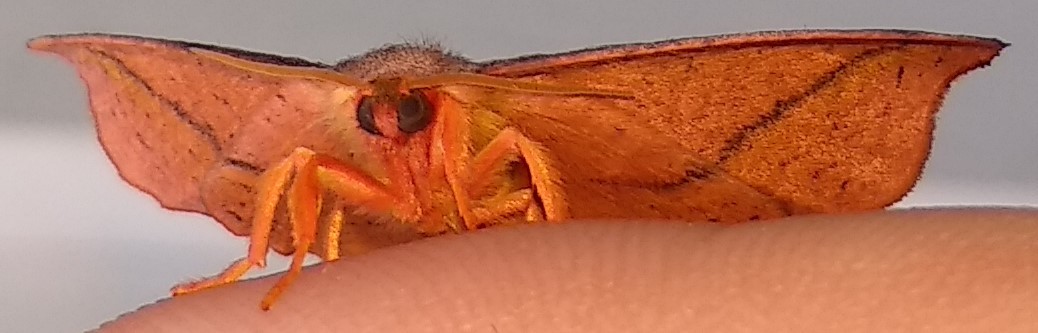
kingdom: Animalia
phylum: Arthropoda
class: Insecta
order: Lepidoptera
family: Drepanidae
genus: Oreta
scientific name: Oreta rosea
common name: Rose hooktip
